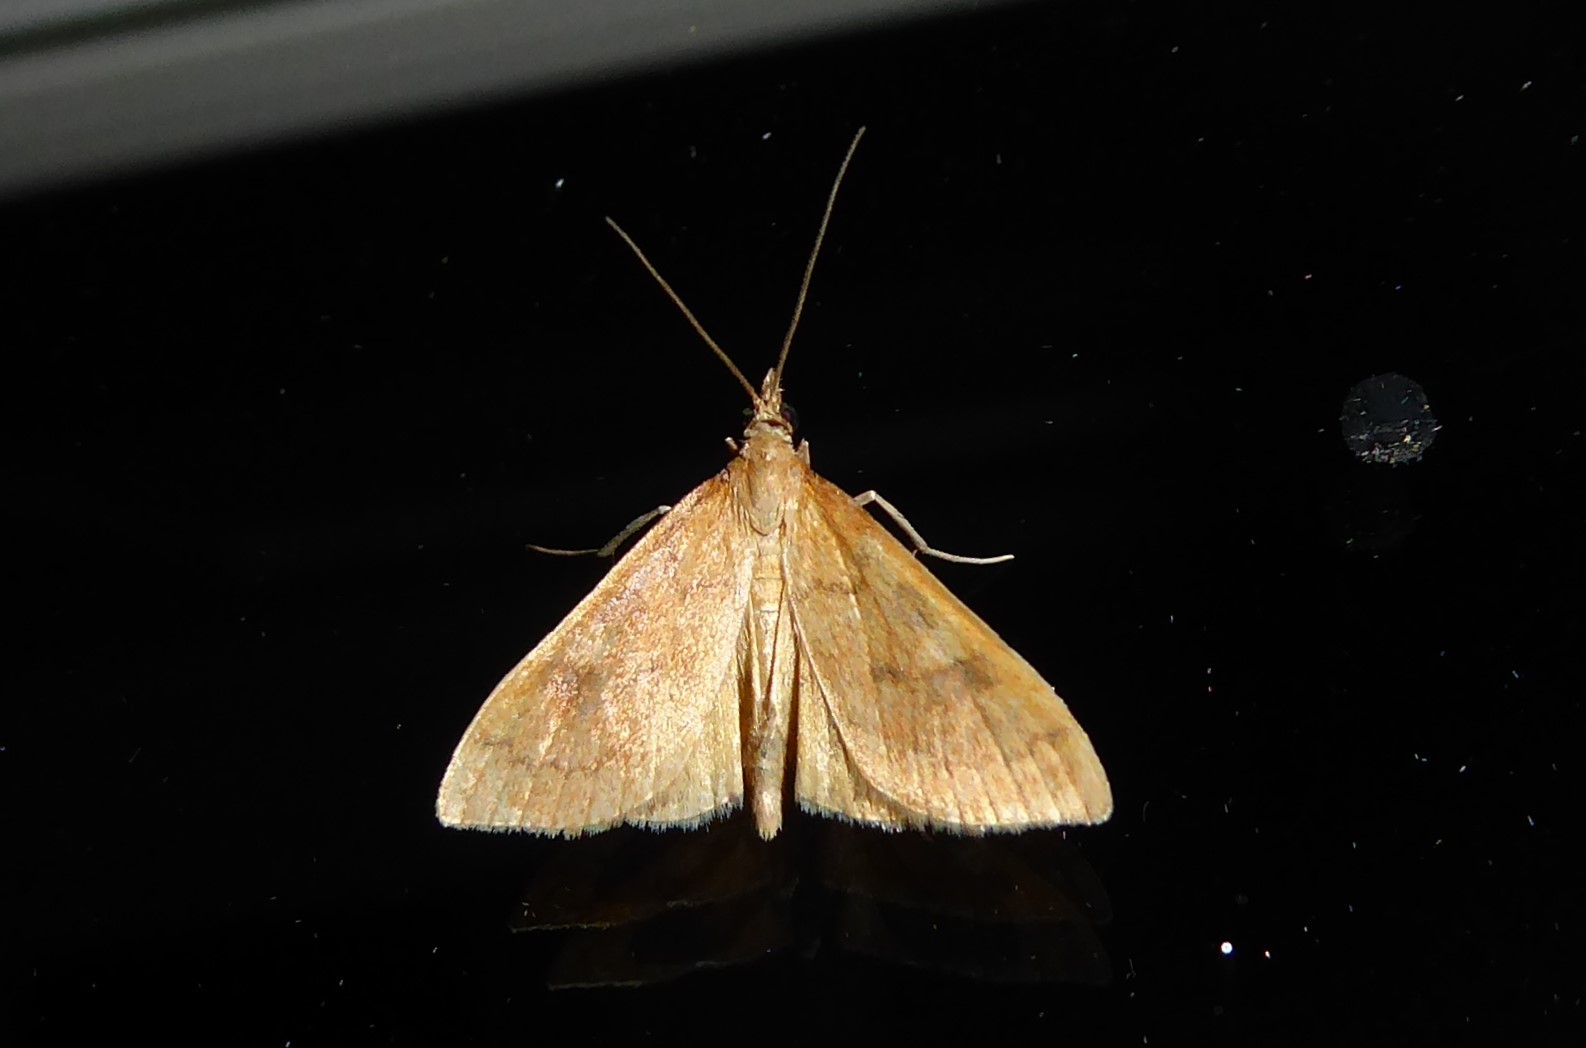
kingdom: Animalia
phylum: Arthropoda
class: Insecta
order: Lepidoptera
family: Crambidae
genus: Udea
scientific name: Udea Mnesictena flavidalis
